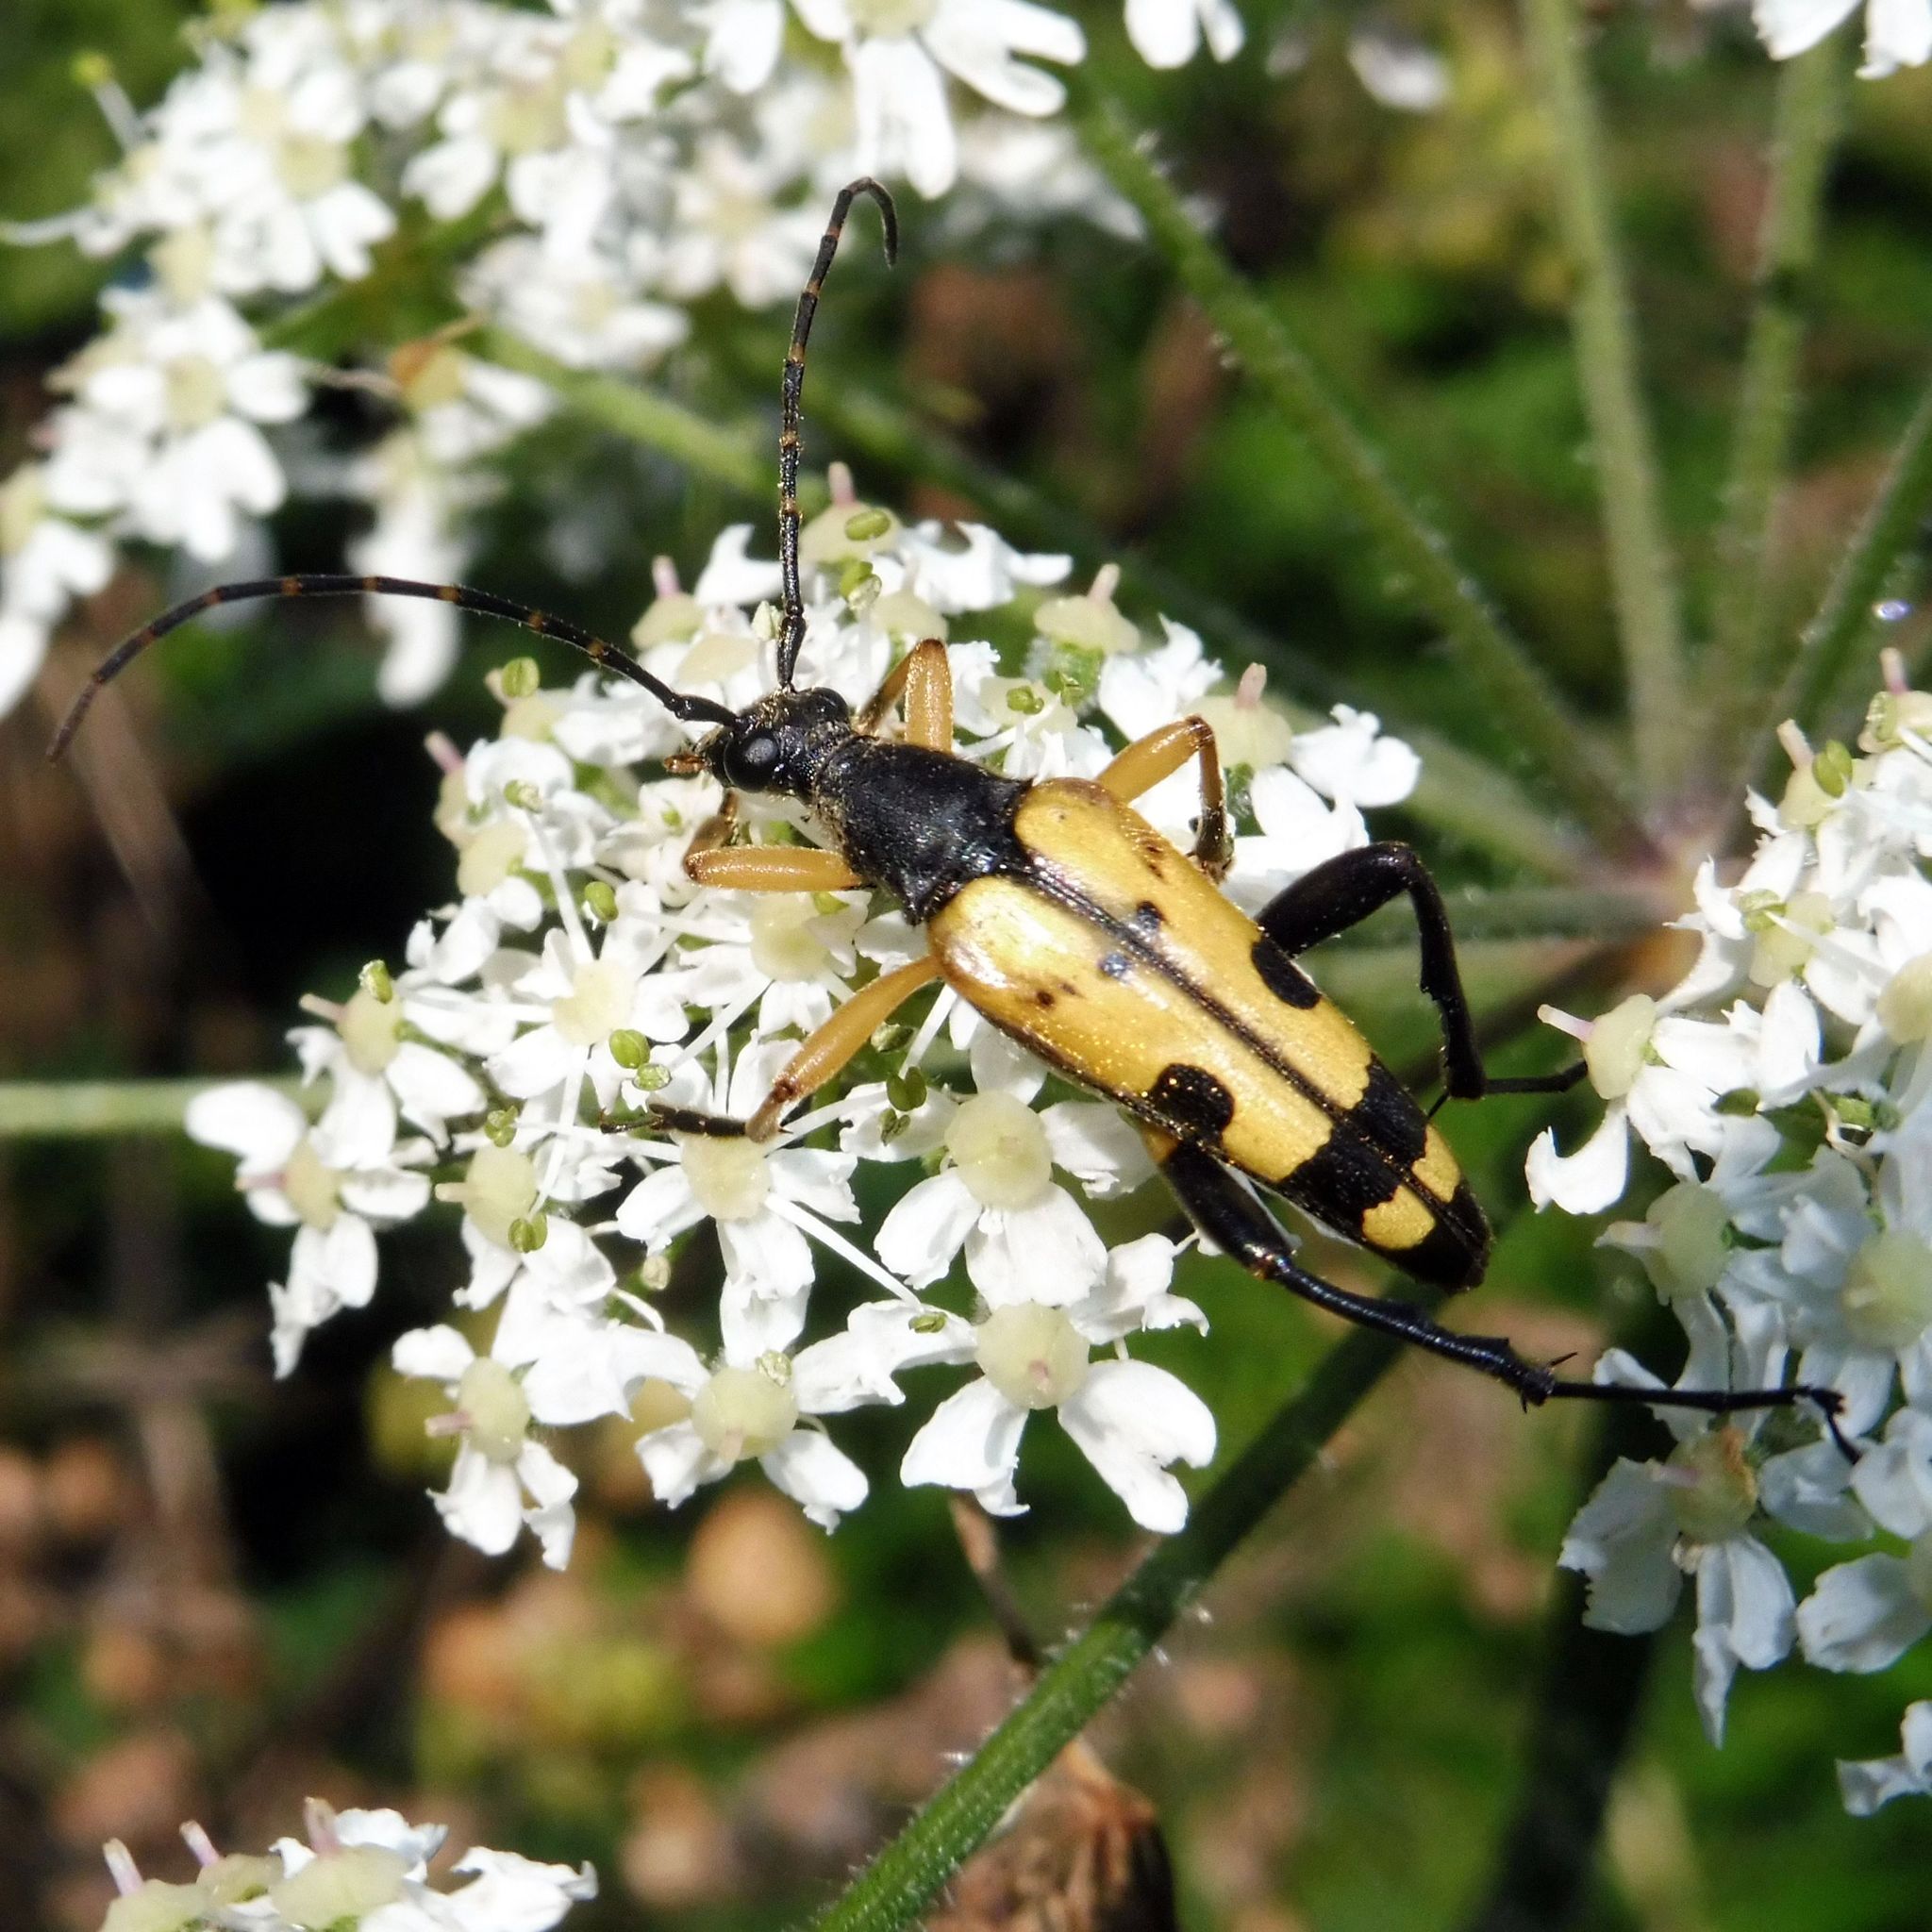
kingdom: Animalia
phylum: Arthropoda
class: Insecta
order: Coleoptera
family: Cerambycidae
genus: Rutpela
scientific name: Rutpela maculata
